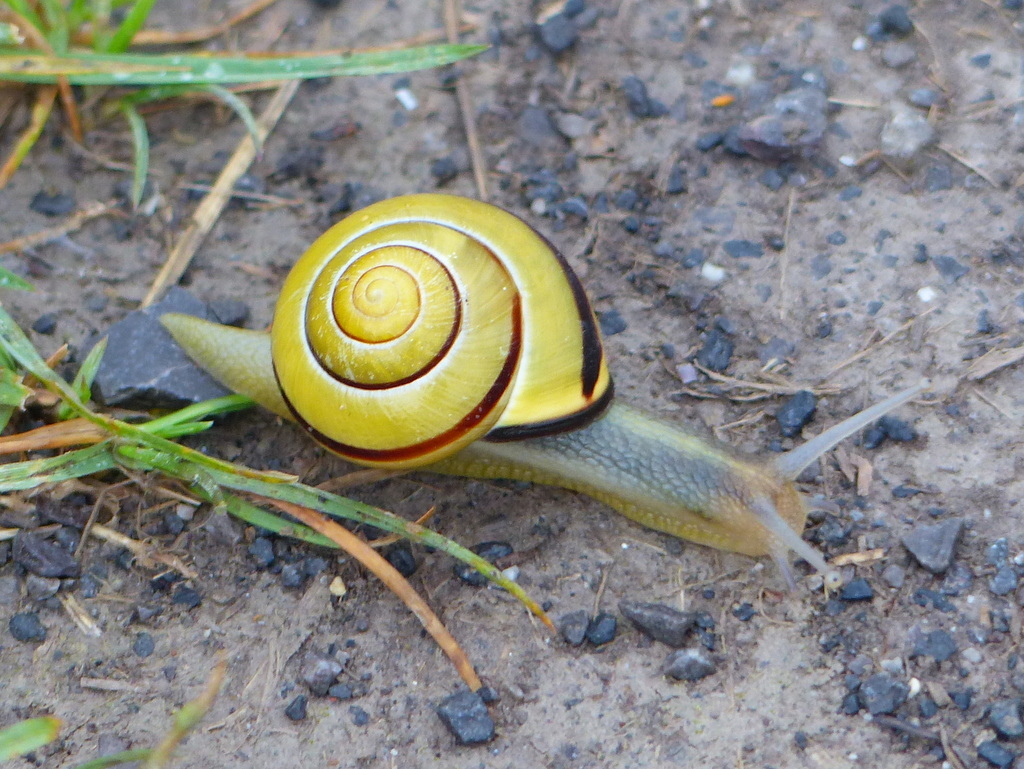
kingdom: Animalia
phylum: Mollusca
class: Gastropoda
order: Stylommatophora
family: Helicidae
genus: Cepaea
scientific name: Cepaea nemoralis
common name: Grovesnail
